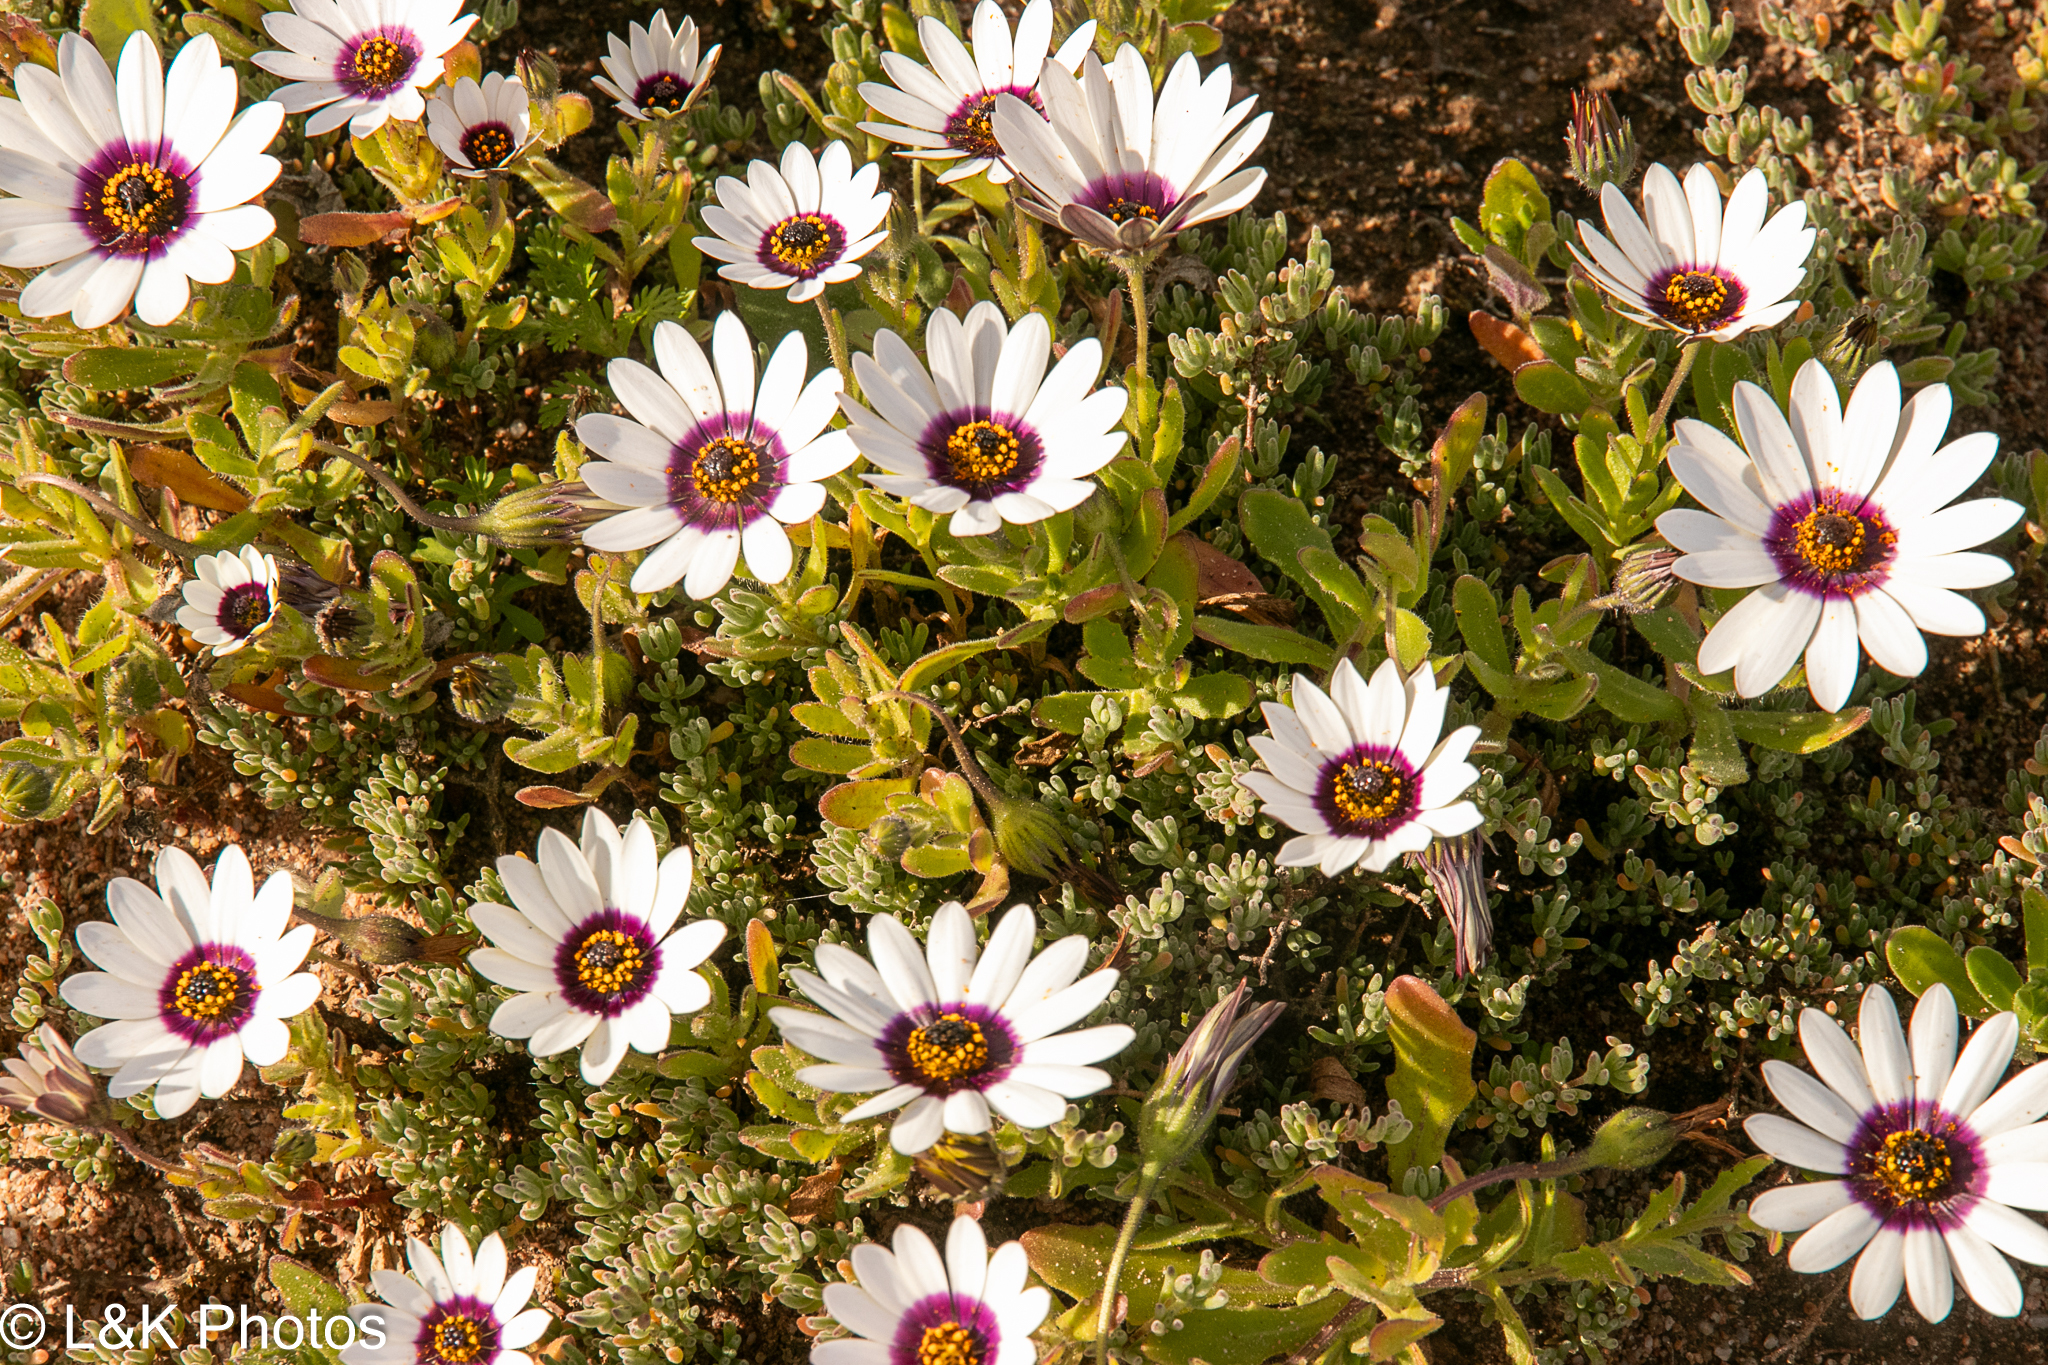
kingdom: Plantae
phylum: Tracheophyta
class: Magnoliopsida
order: Asterales
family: Asteraceae
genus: Dimorphotheca
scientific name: Dimorphotheca pluvialis
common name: Weather prophet
